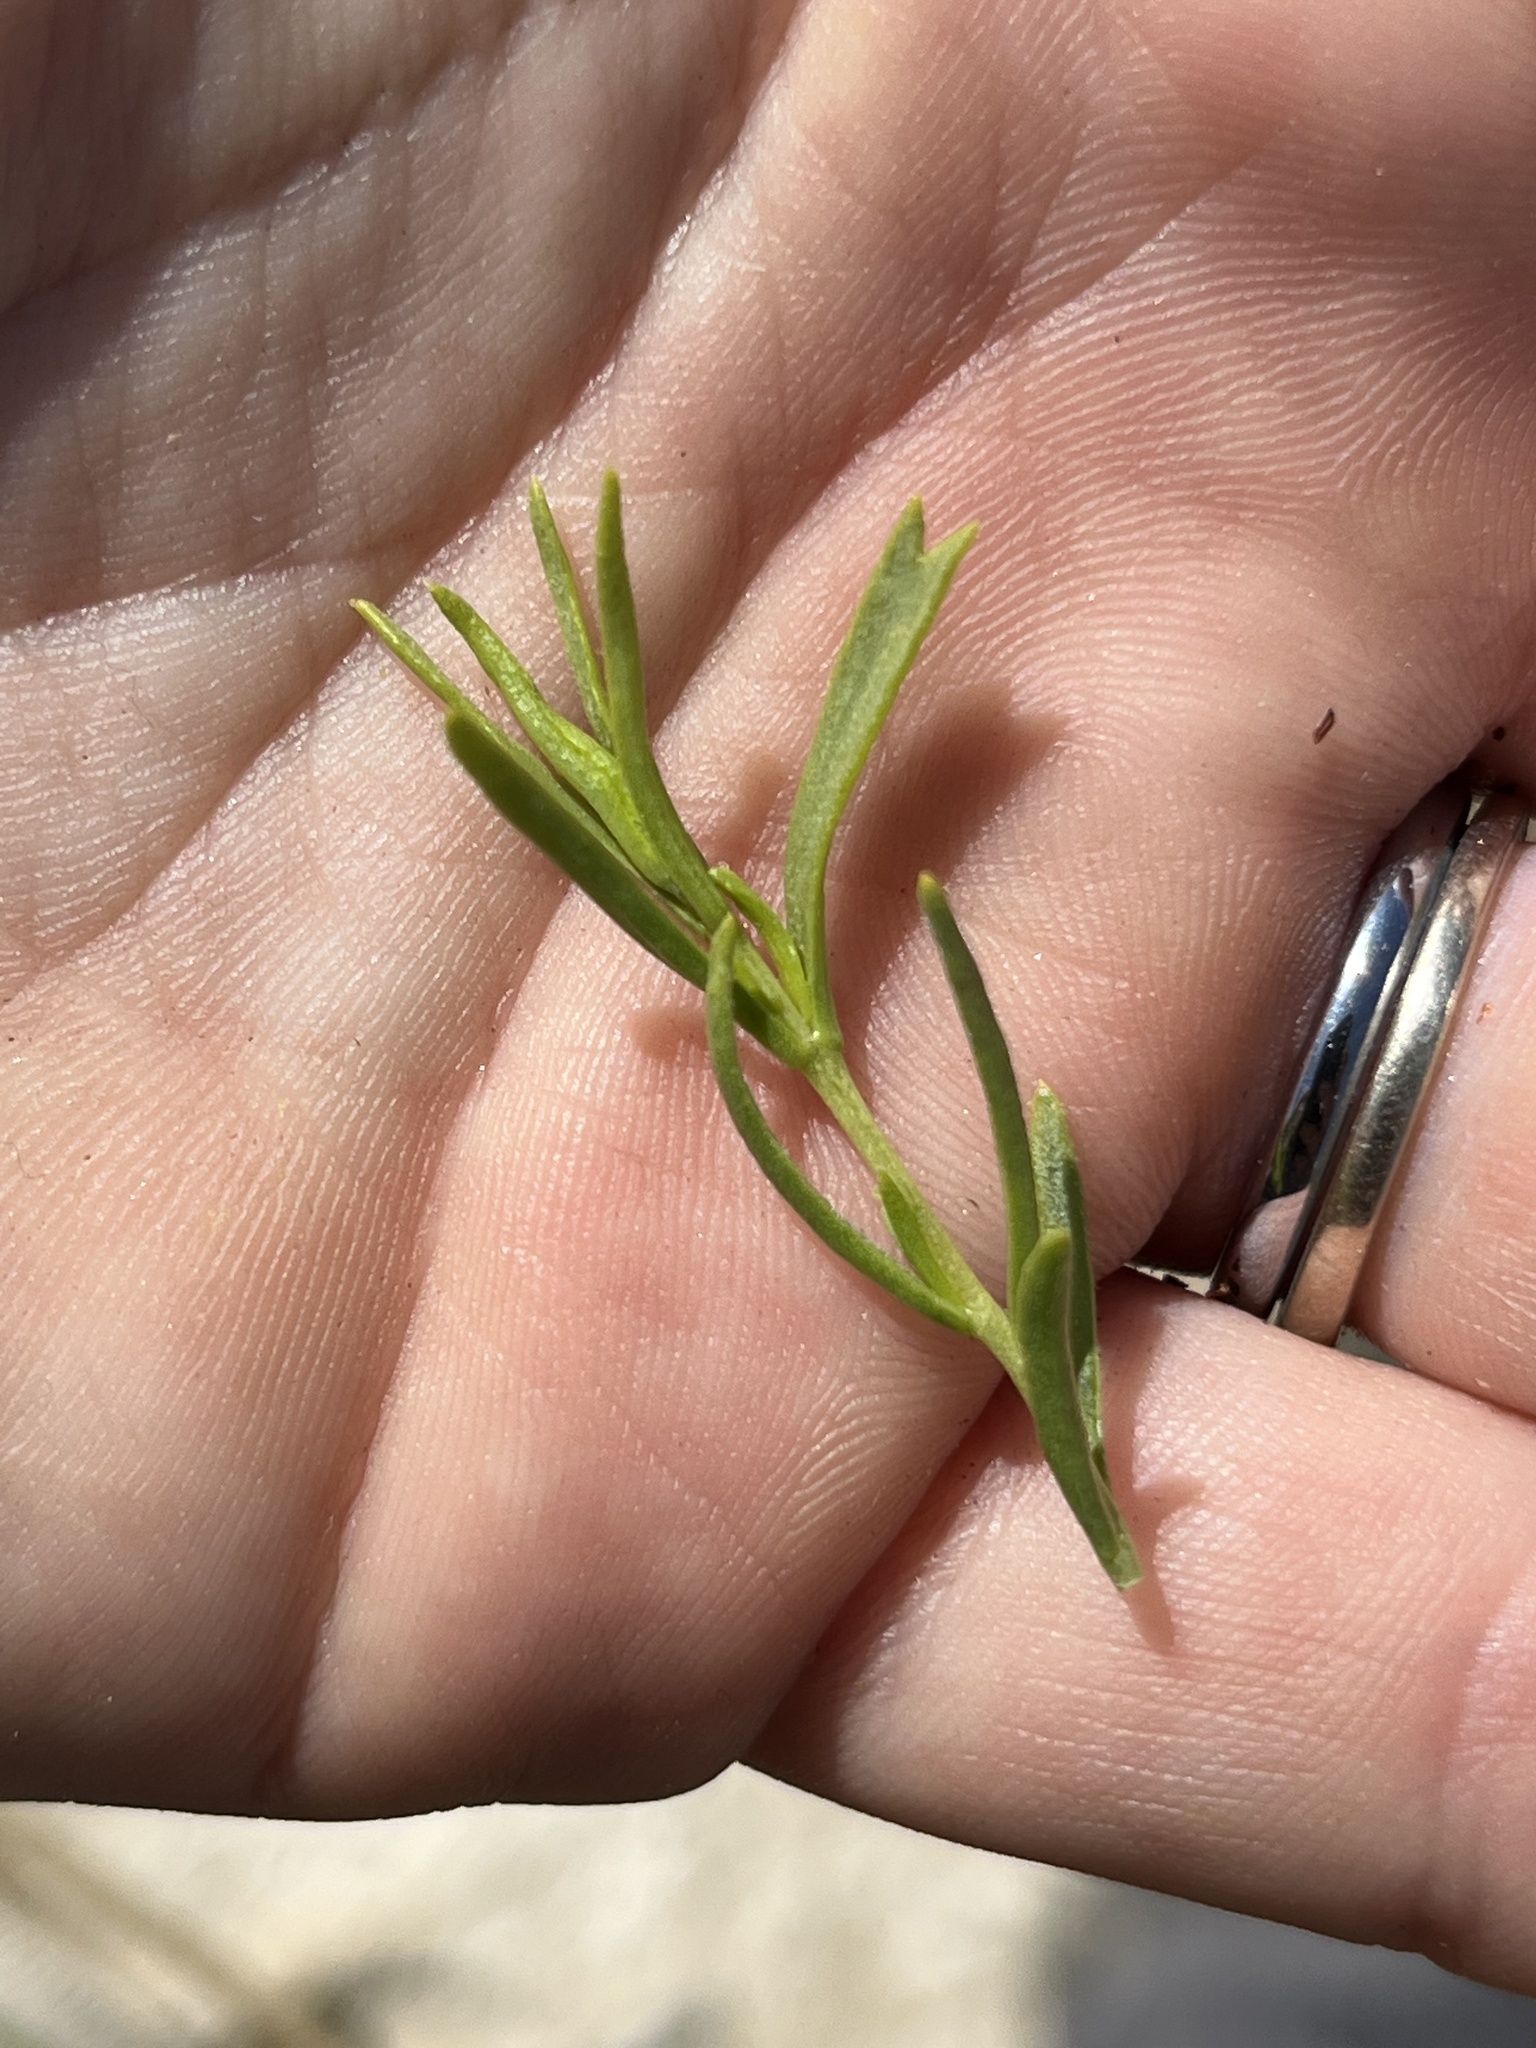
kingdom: Plantae
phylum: Tracheophyta
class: Magnoliopsida
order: Caryophyllales
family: Sarcobataceae
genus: Sarcobatus
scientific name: Sarcobatus vermiculatus
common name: Greasewood
